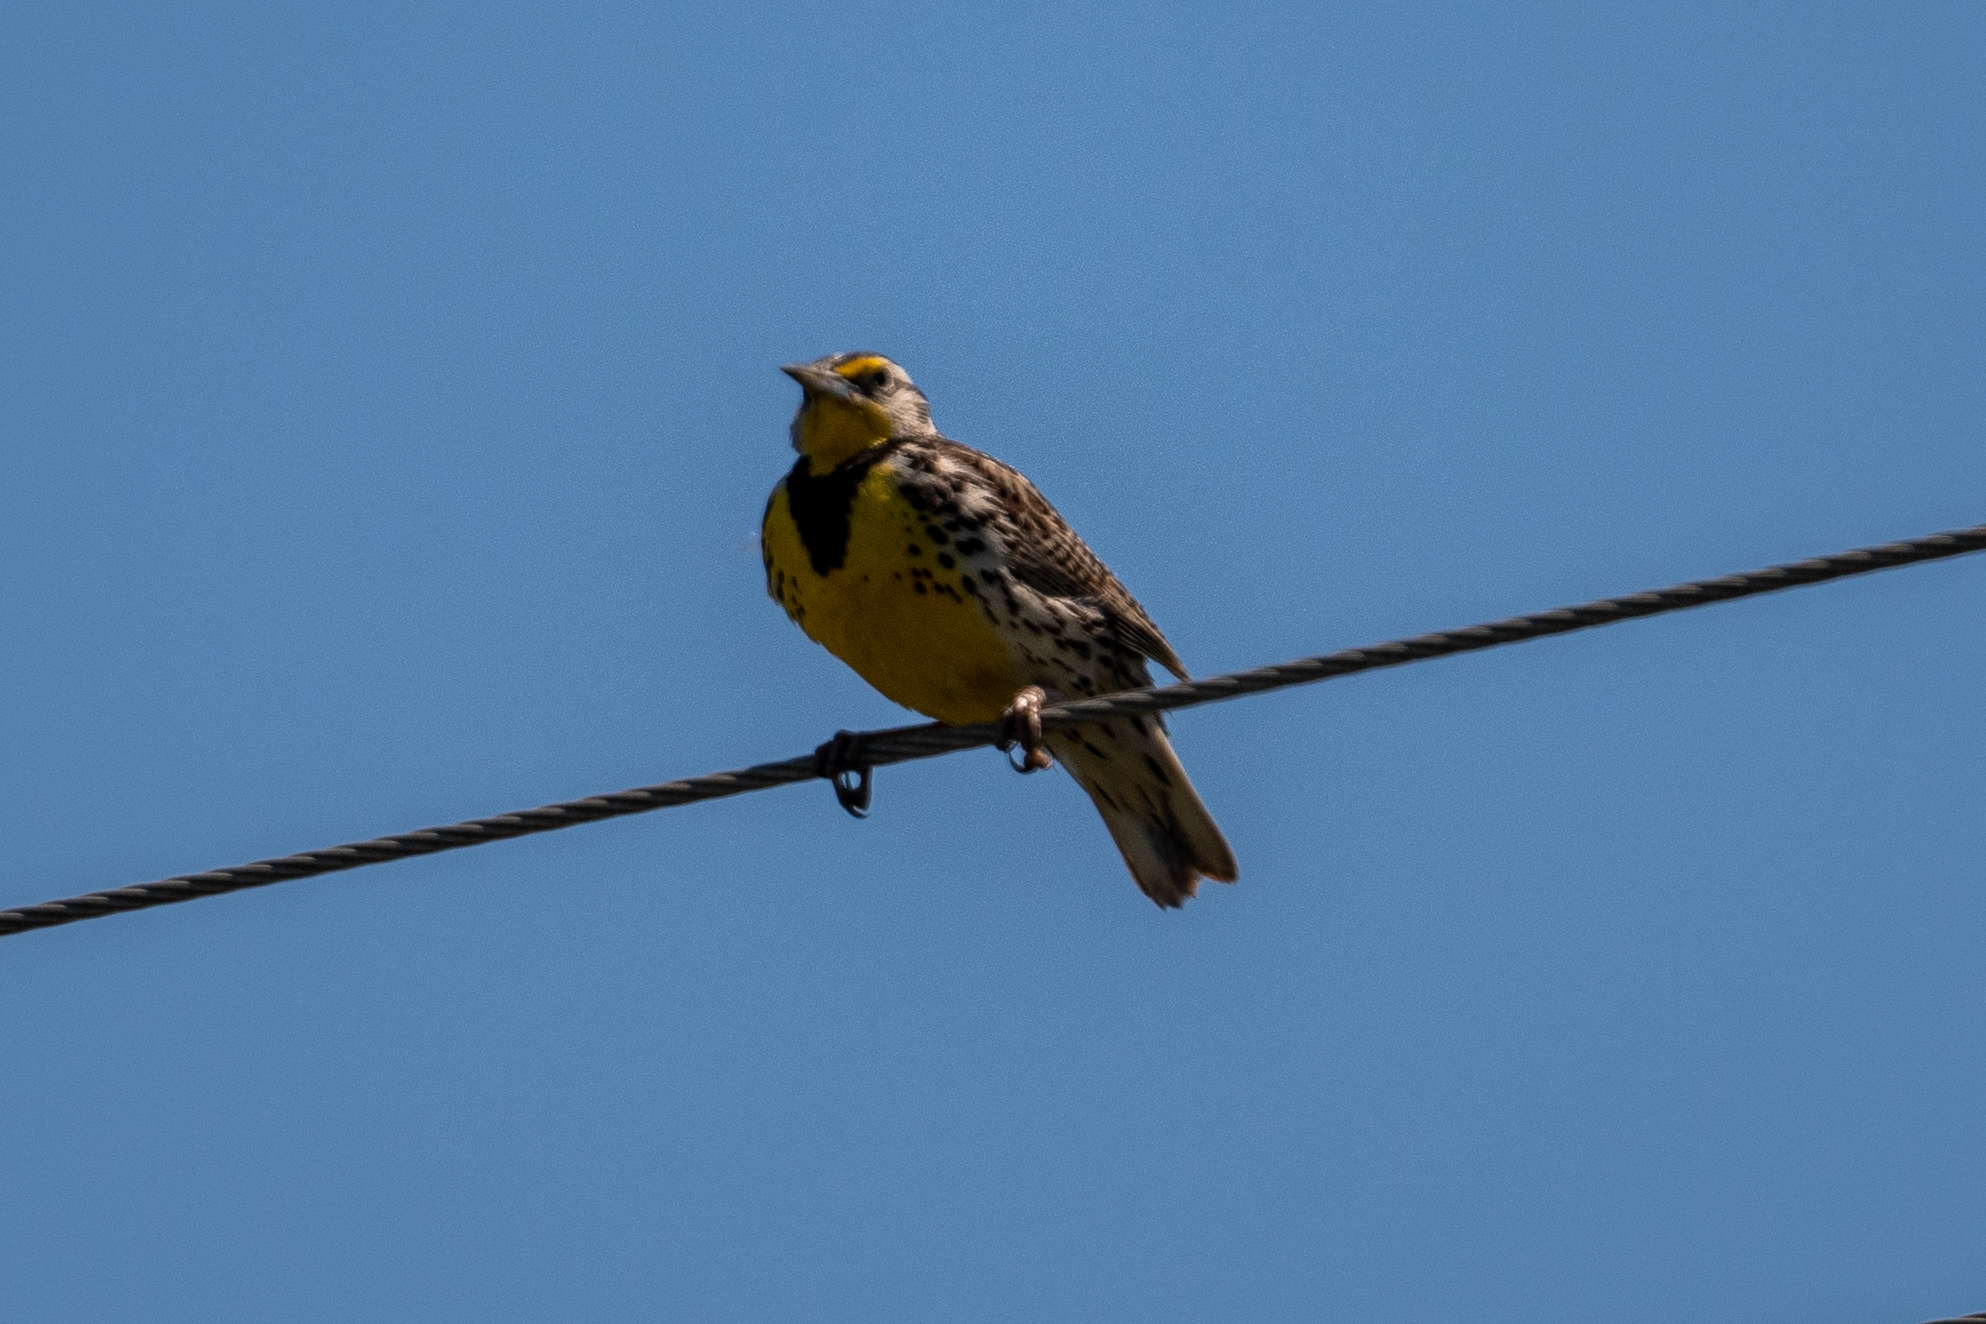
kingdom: Animalia
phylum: Chordata
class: Aves
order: Passeriformes
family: Icteridae
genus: Sturnella
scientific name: Sturnella neglecta
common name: Western meadowlark
